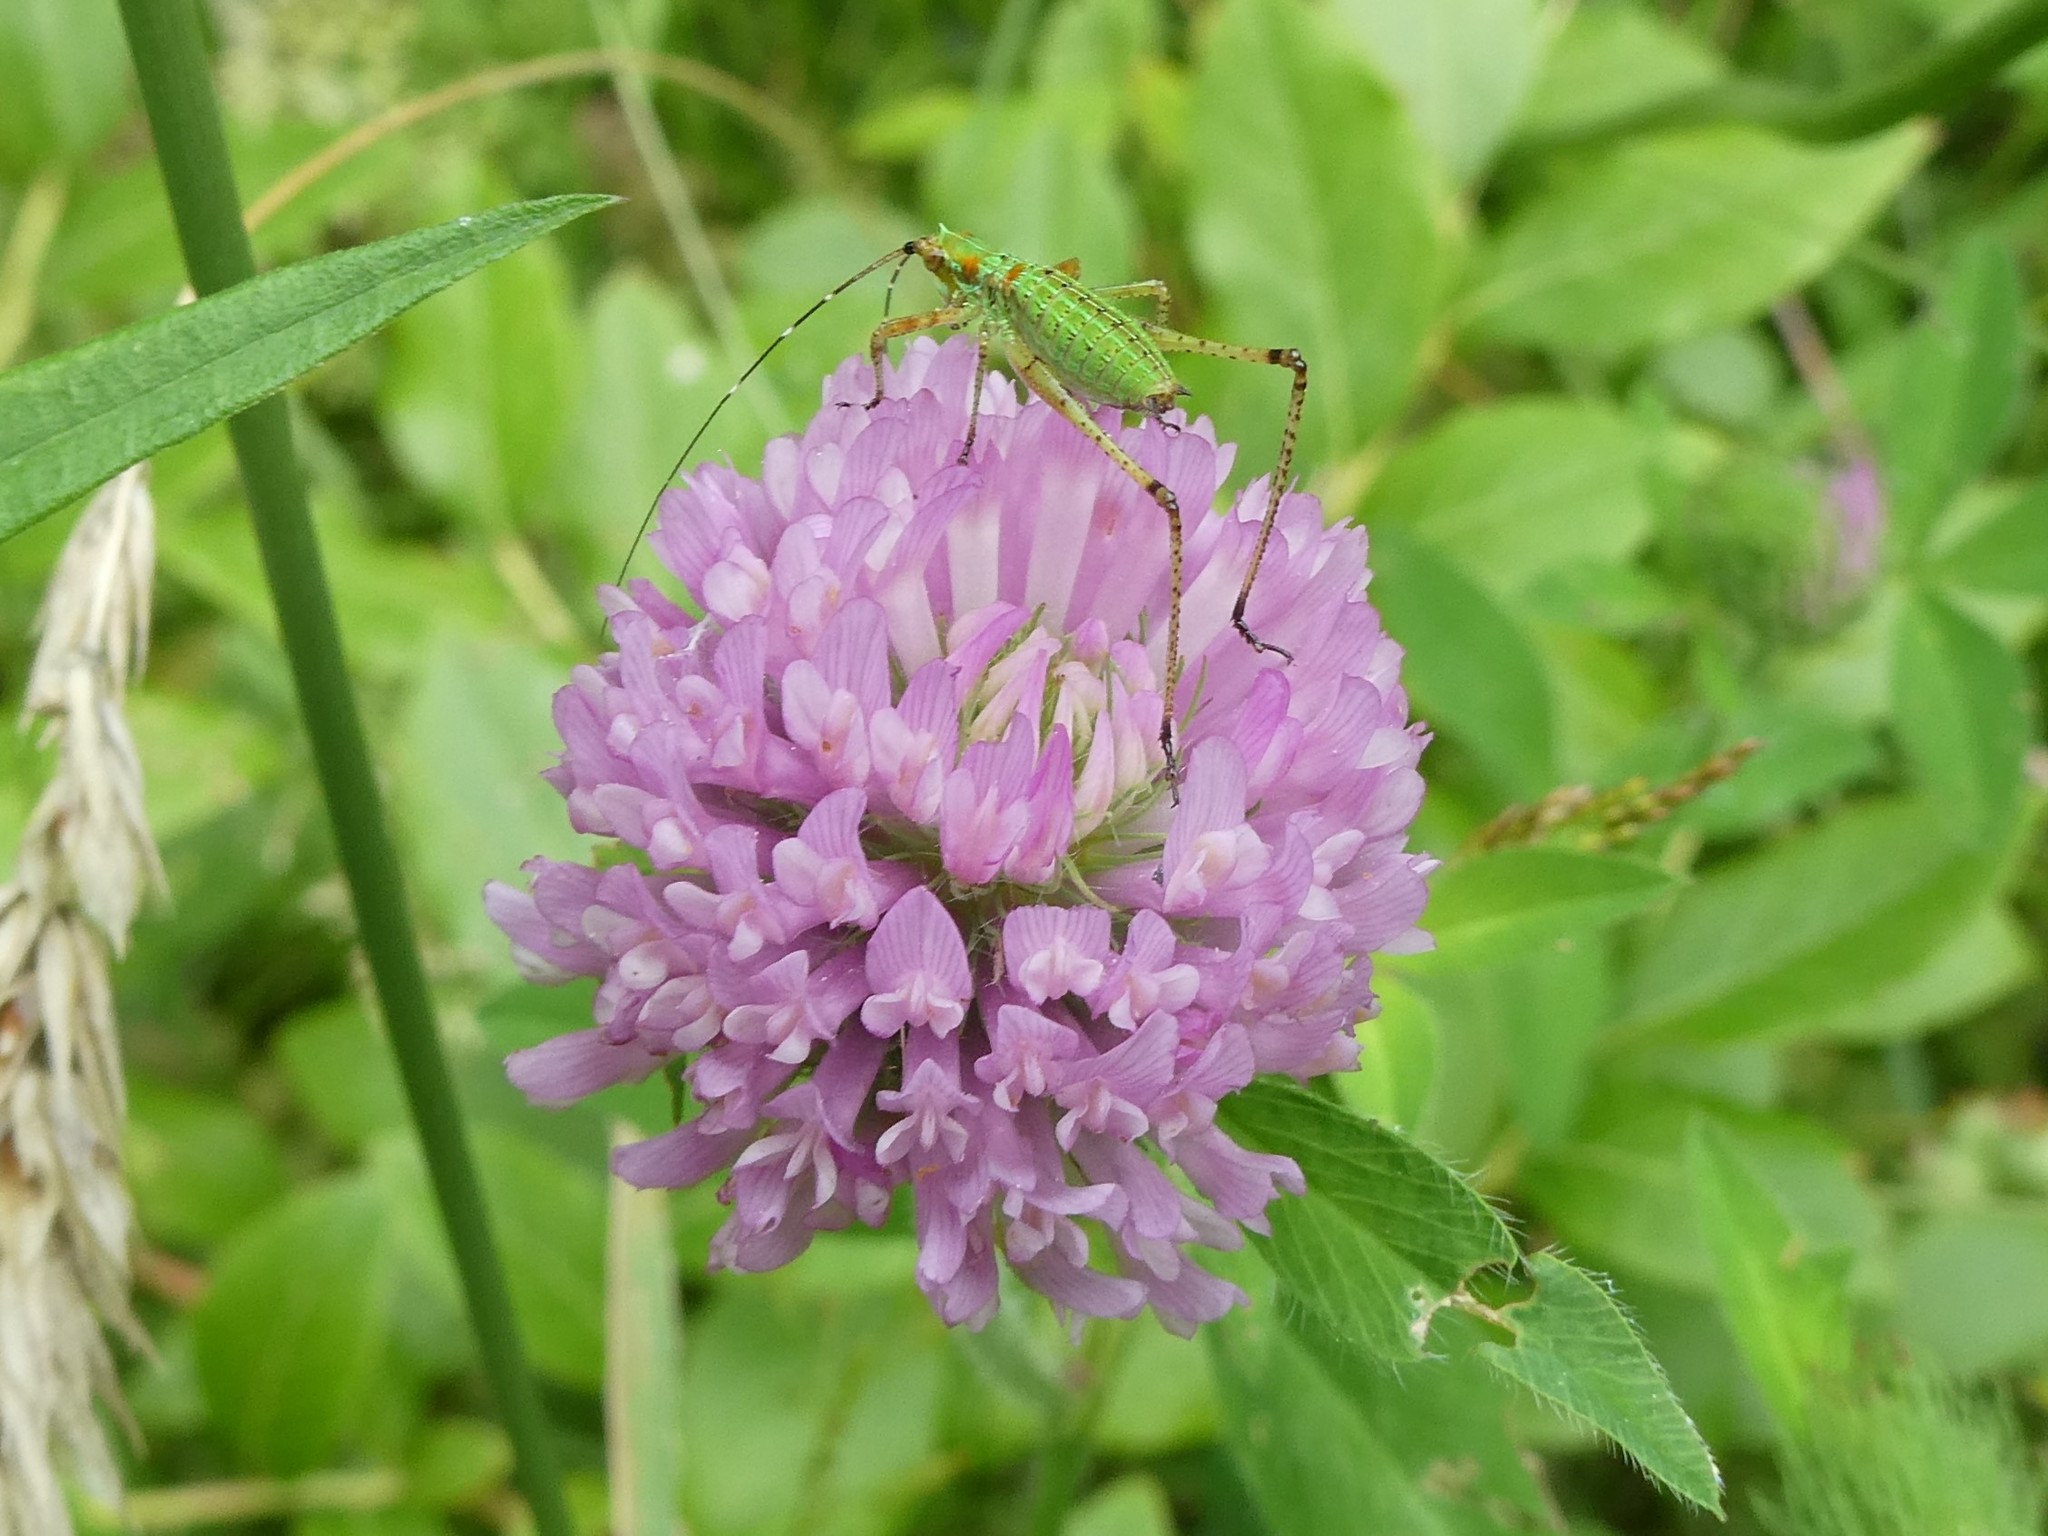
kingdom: Plantae
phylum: Tracheophyta
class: Magnoliopsida
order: Fabales
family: Fabaceae
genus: Trifolium
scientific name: Trifolium pratense
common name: Red clover
